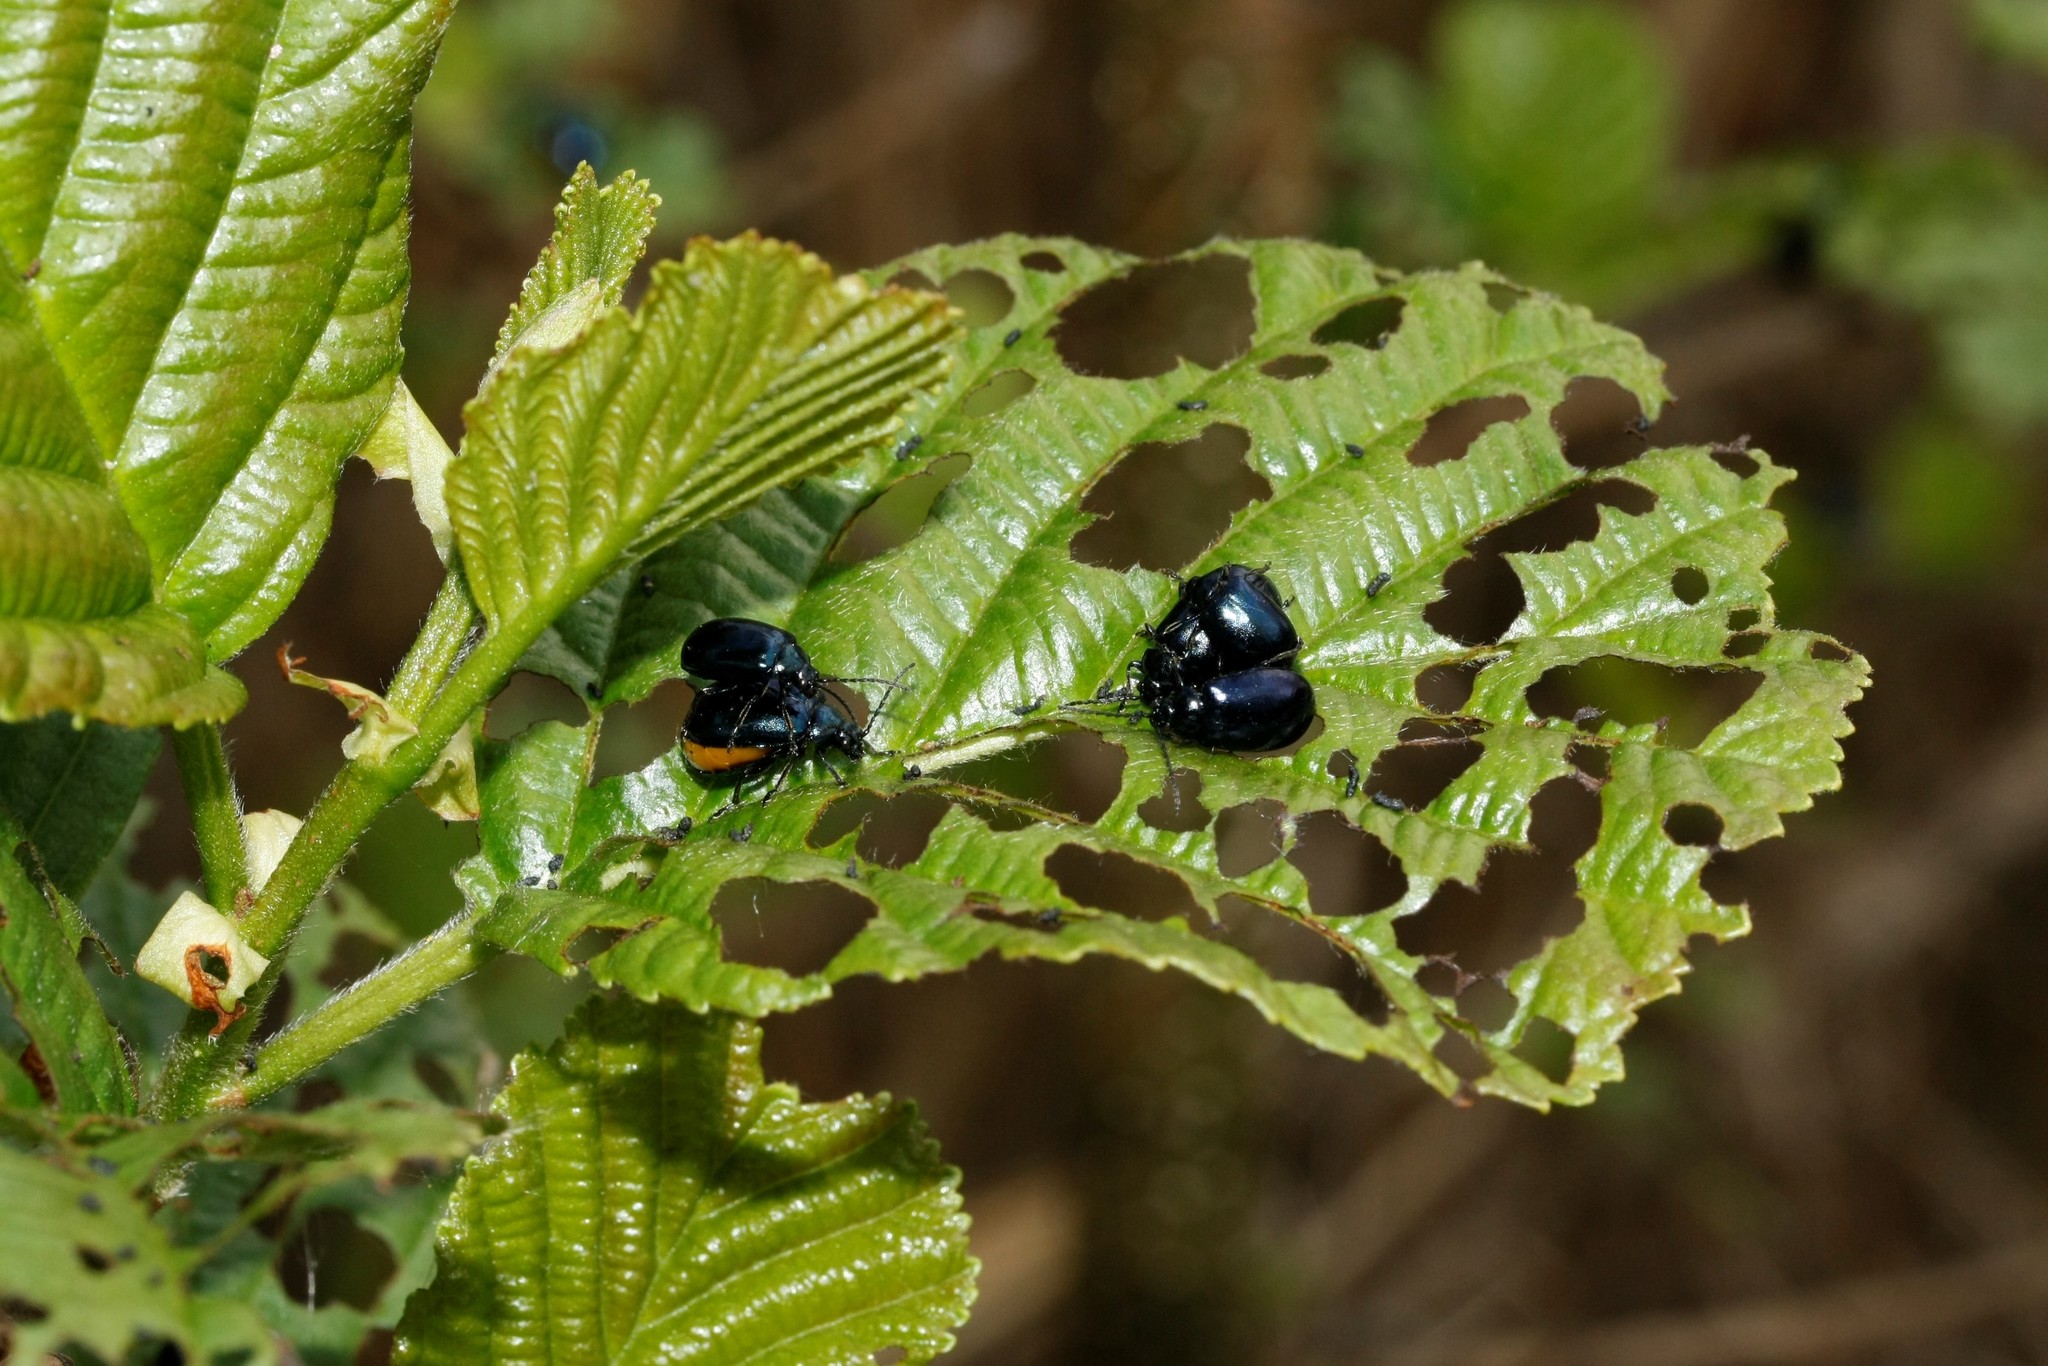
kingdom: Animalia
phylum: Arthropoda
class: Insecta
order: Coleoptera
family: Chrysomelidae
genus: Agelastica
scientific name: Agelastica alni
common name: Alder leaf beetle
